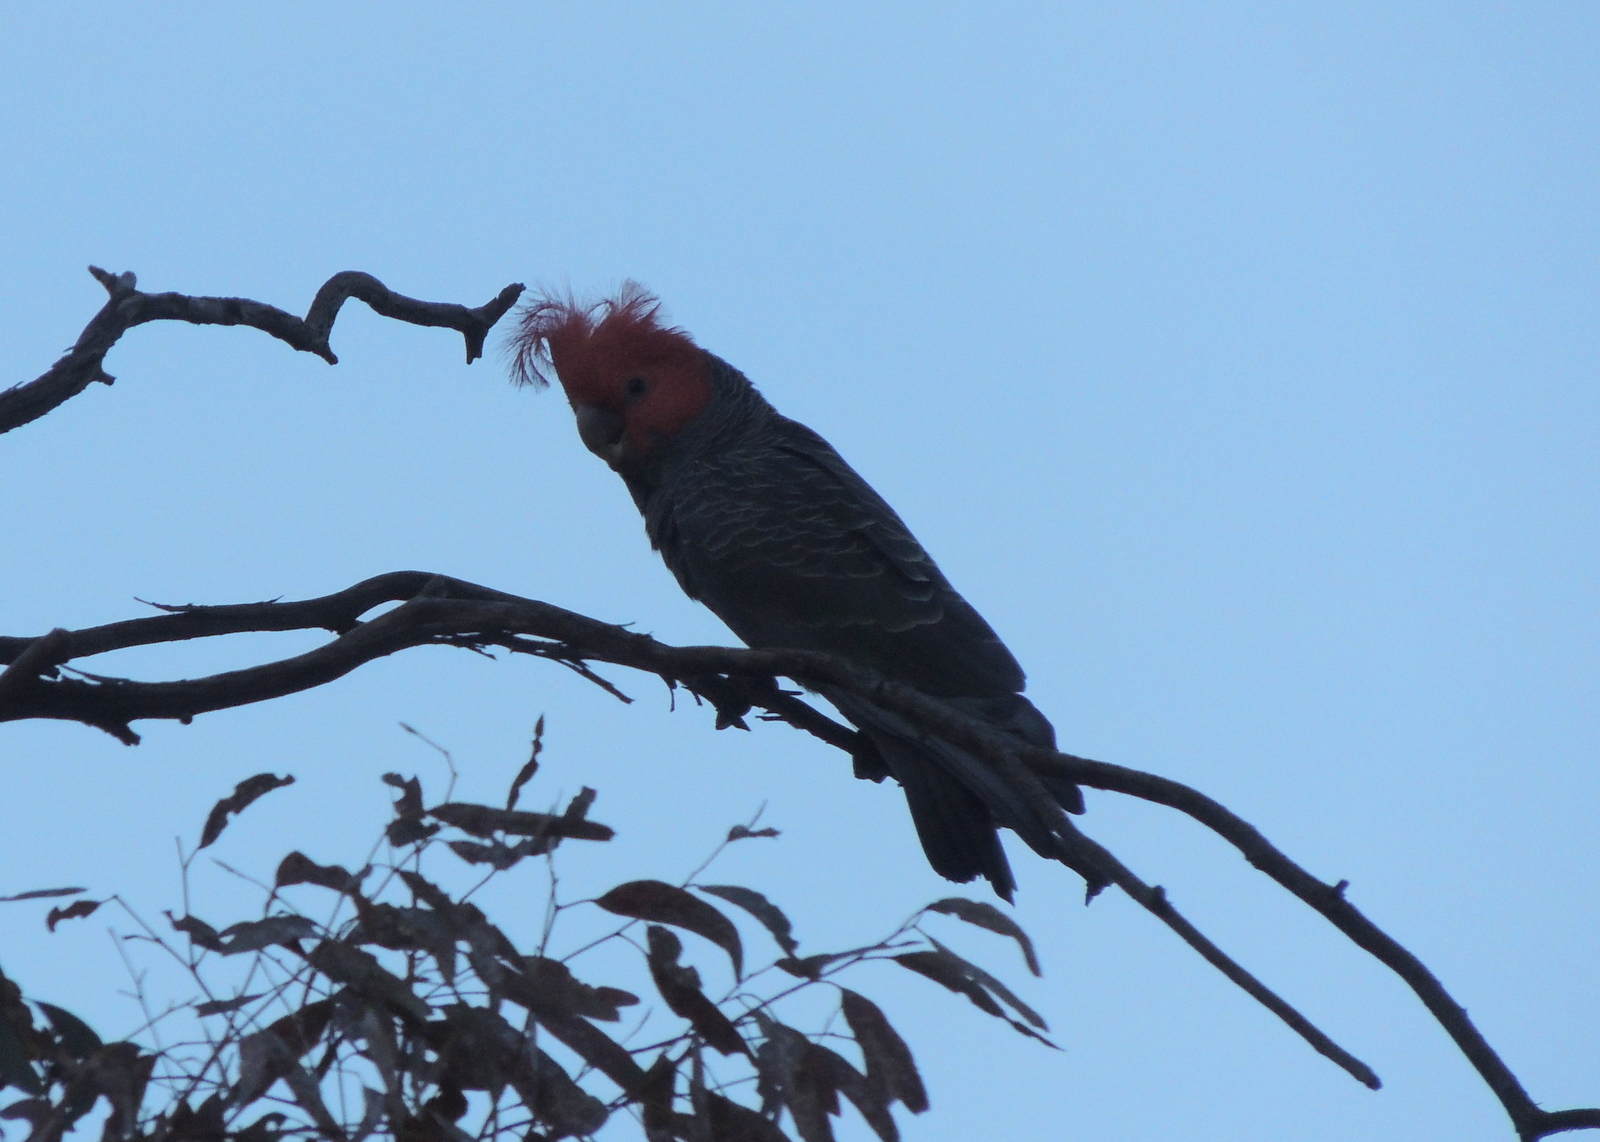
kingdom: Animalia
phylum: Chordata
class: Aves
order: Psittaciformes
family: Psittacidae
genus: Callocephalon
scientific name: Callocephalon fimbriatum
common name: Gang-gang cockatoo
